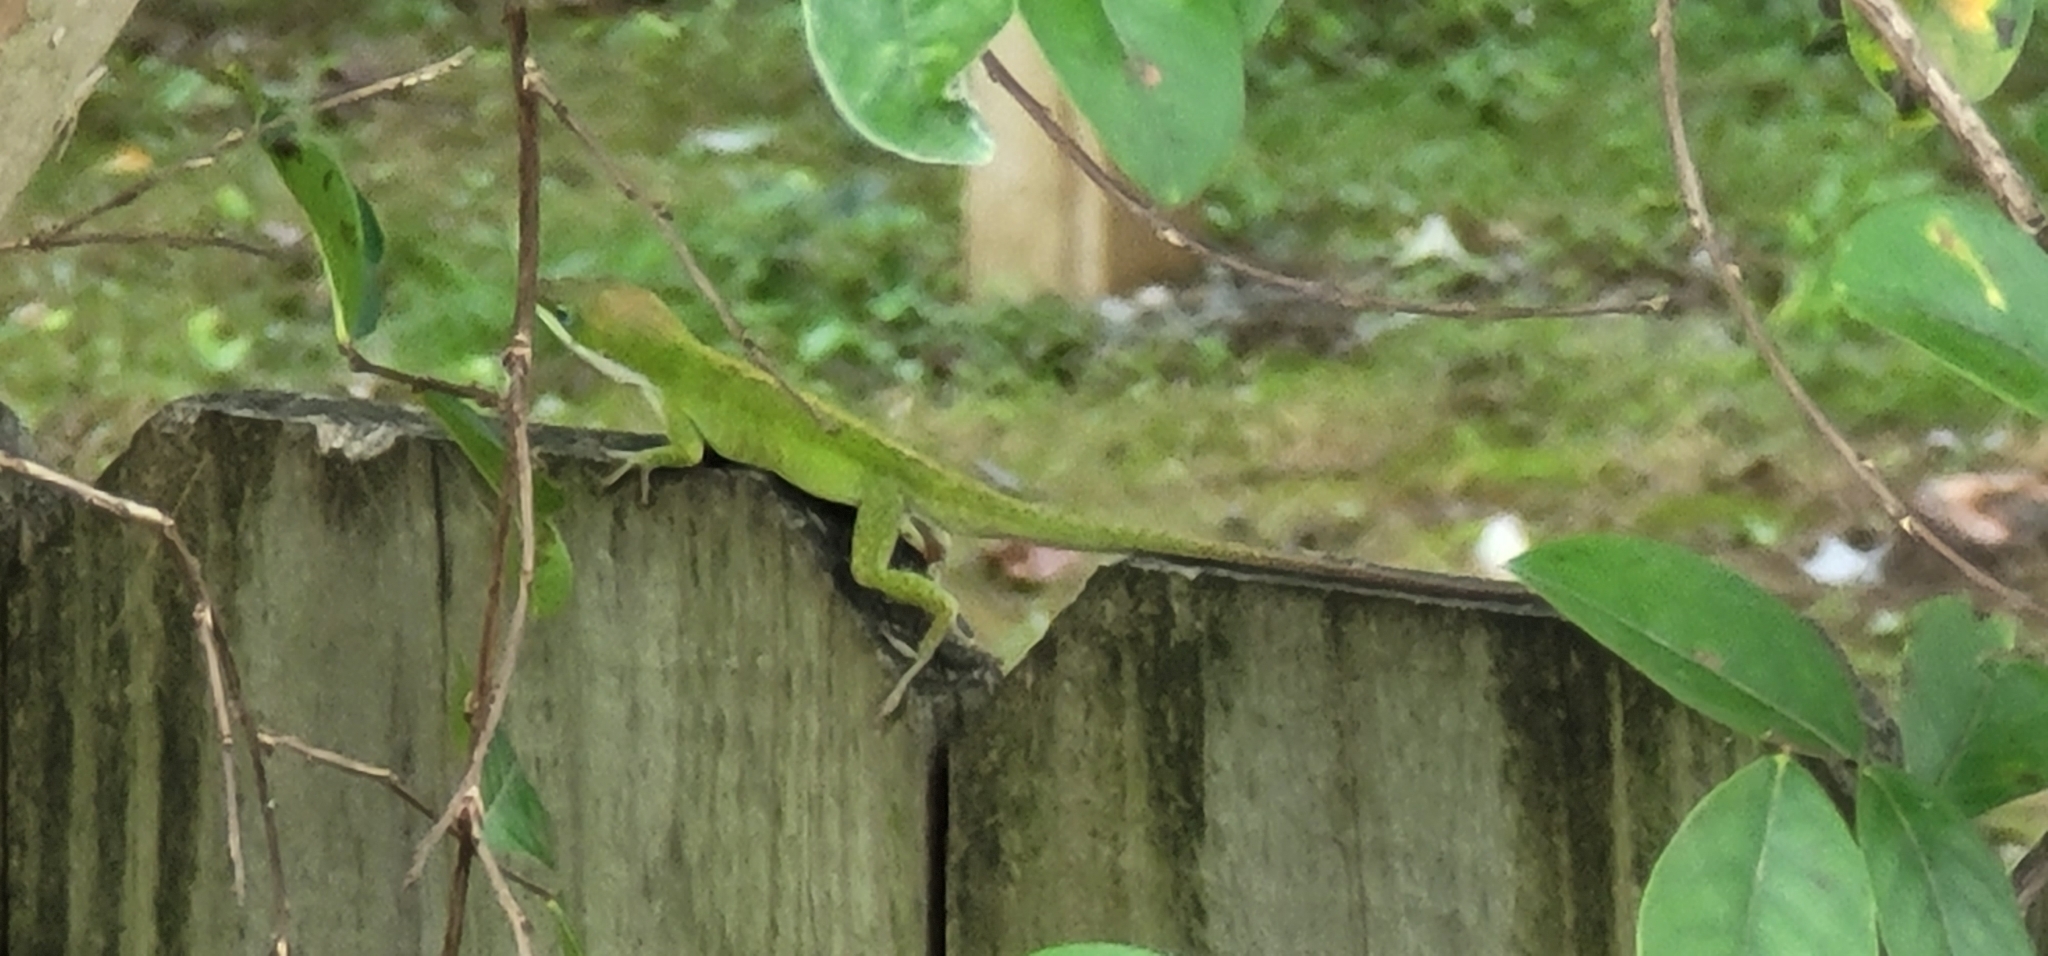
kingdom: Animalia
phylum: Chordata
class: Squamata
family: Dactyloidae
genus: Anolis
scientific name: Anolis carolinensis
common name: Green anole
